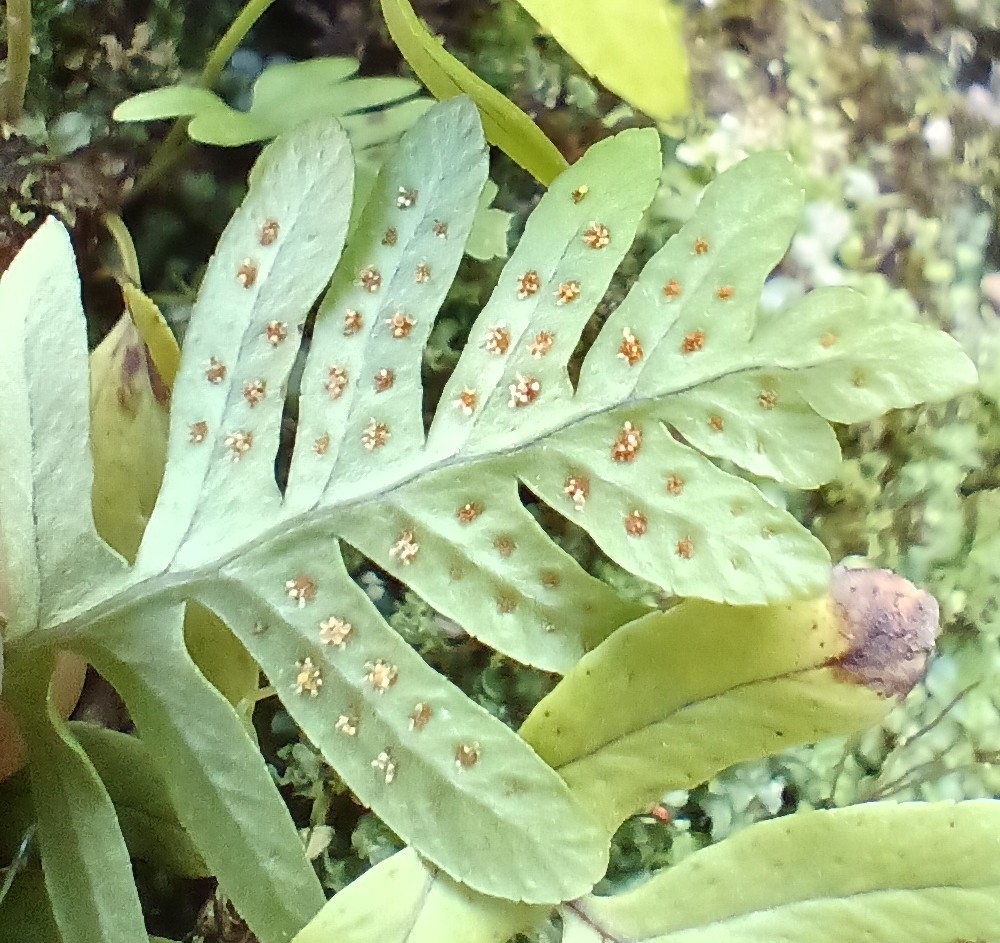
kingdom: Plantae
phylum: Tracheophyta
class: Polypodiopsida
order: Polypodiales
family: Polypodiaceae
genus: Polypodium
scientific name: Polypodium vulgare
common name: Common polypody
